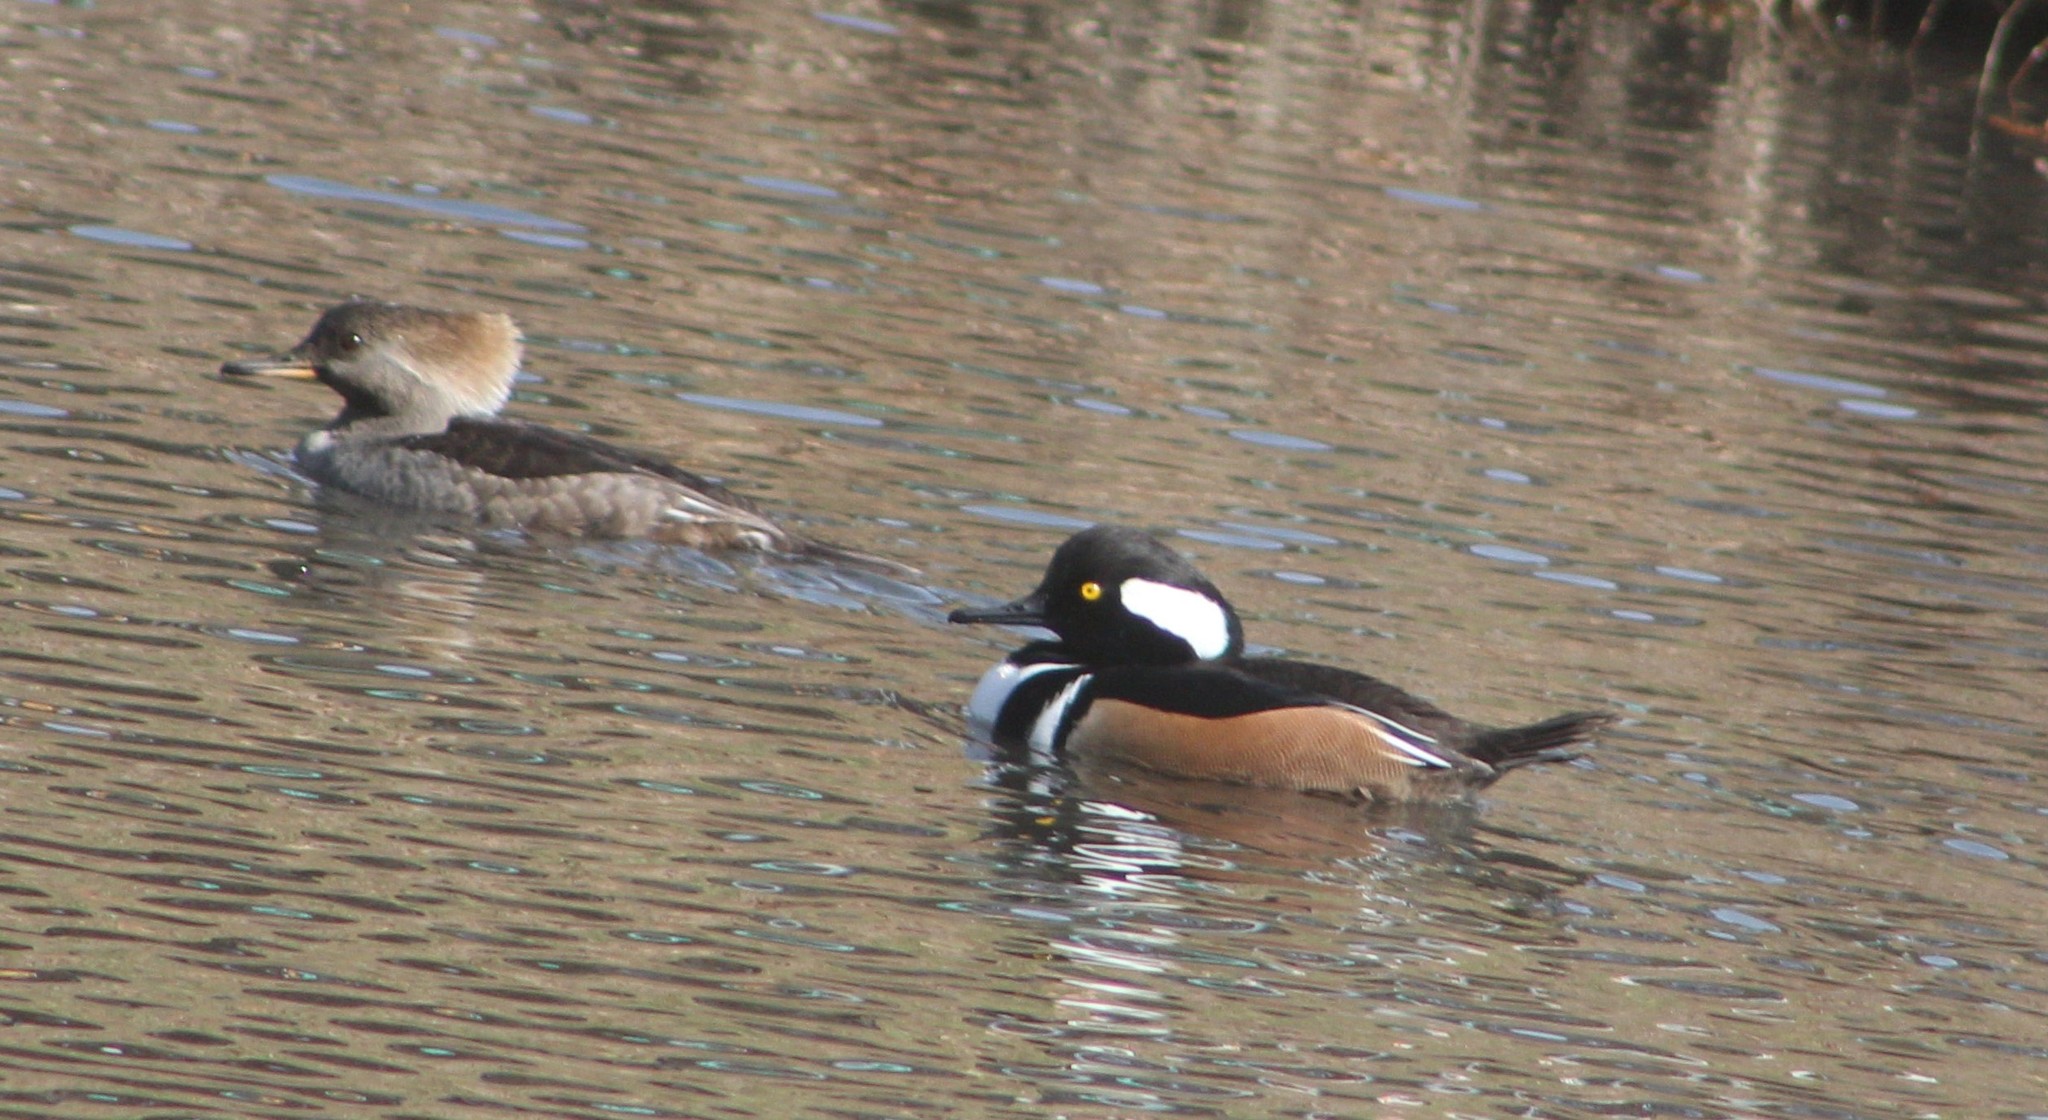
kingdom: Animalia
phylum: Chordata
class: Aves
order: Anseriformes
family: Anatidae
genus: Lophodytes
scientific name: Lophodytes cucullatus
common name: Hooded merganser
